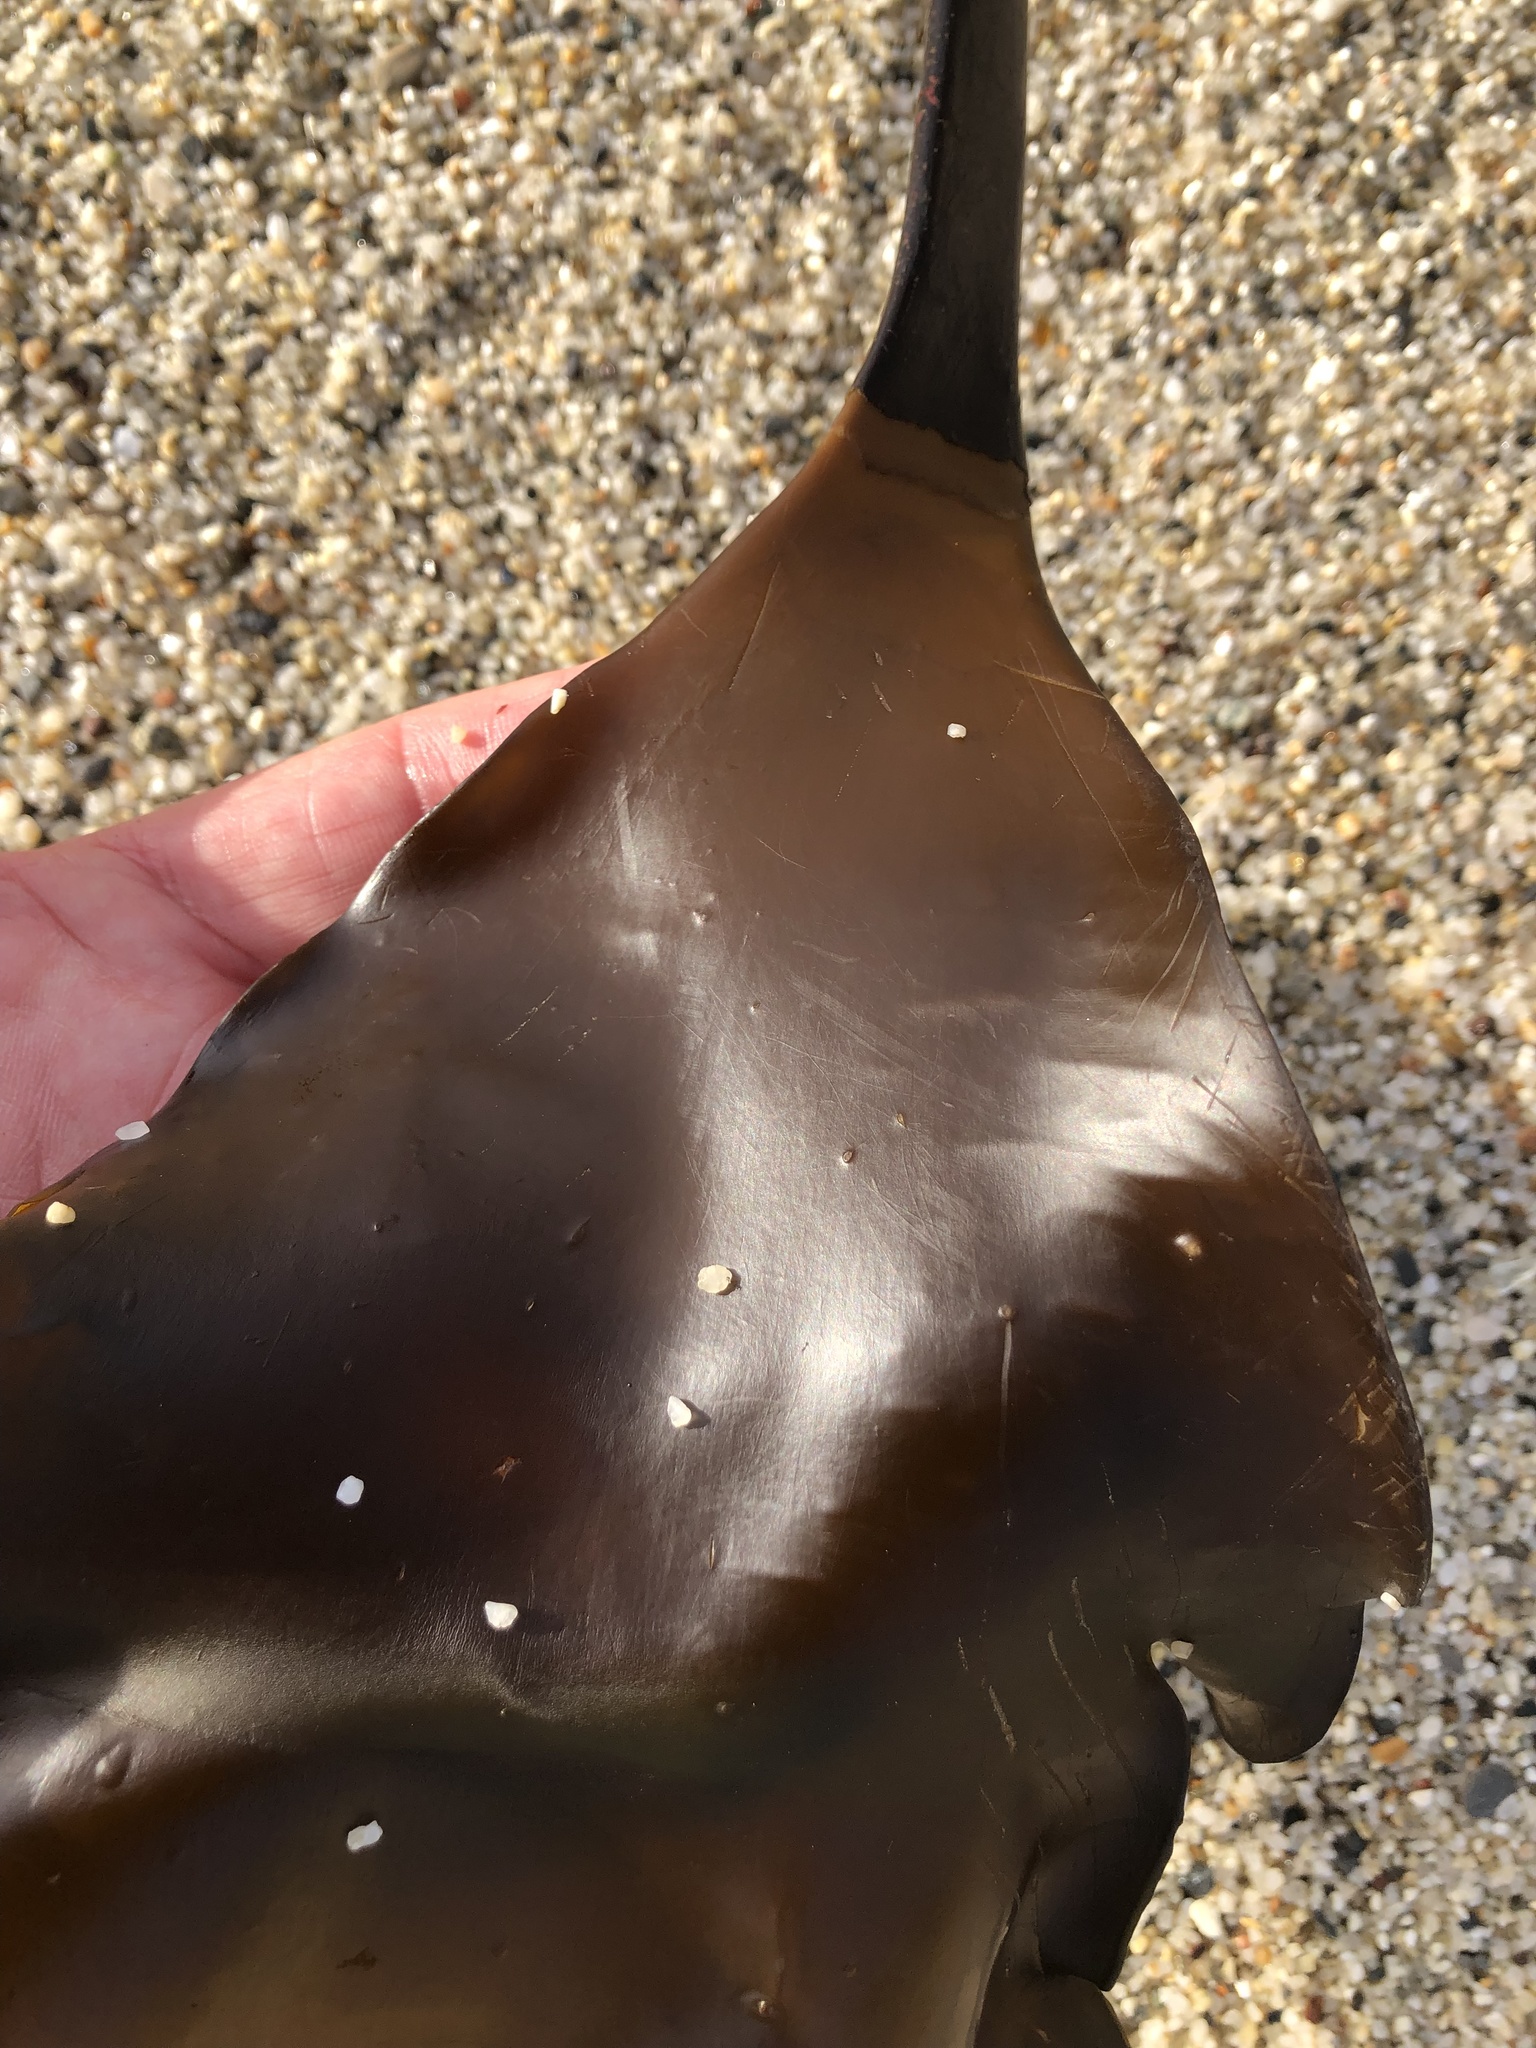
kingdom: Chromista
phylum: Ochrophyta
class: Phaeophyceae
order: Laminariales
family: Laminariaceae
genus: Laminaria
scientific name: Laminaria setchellii
